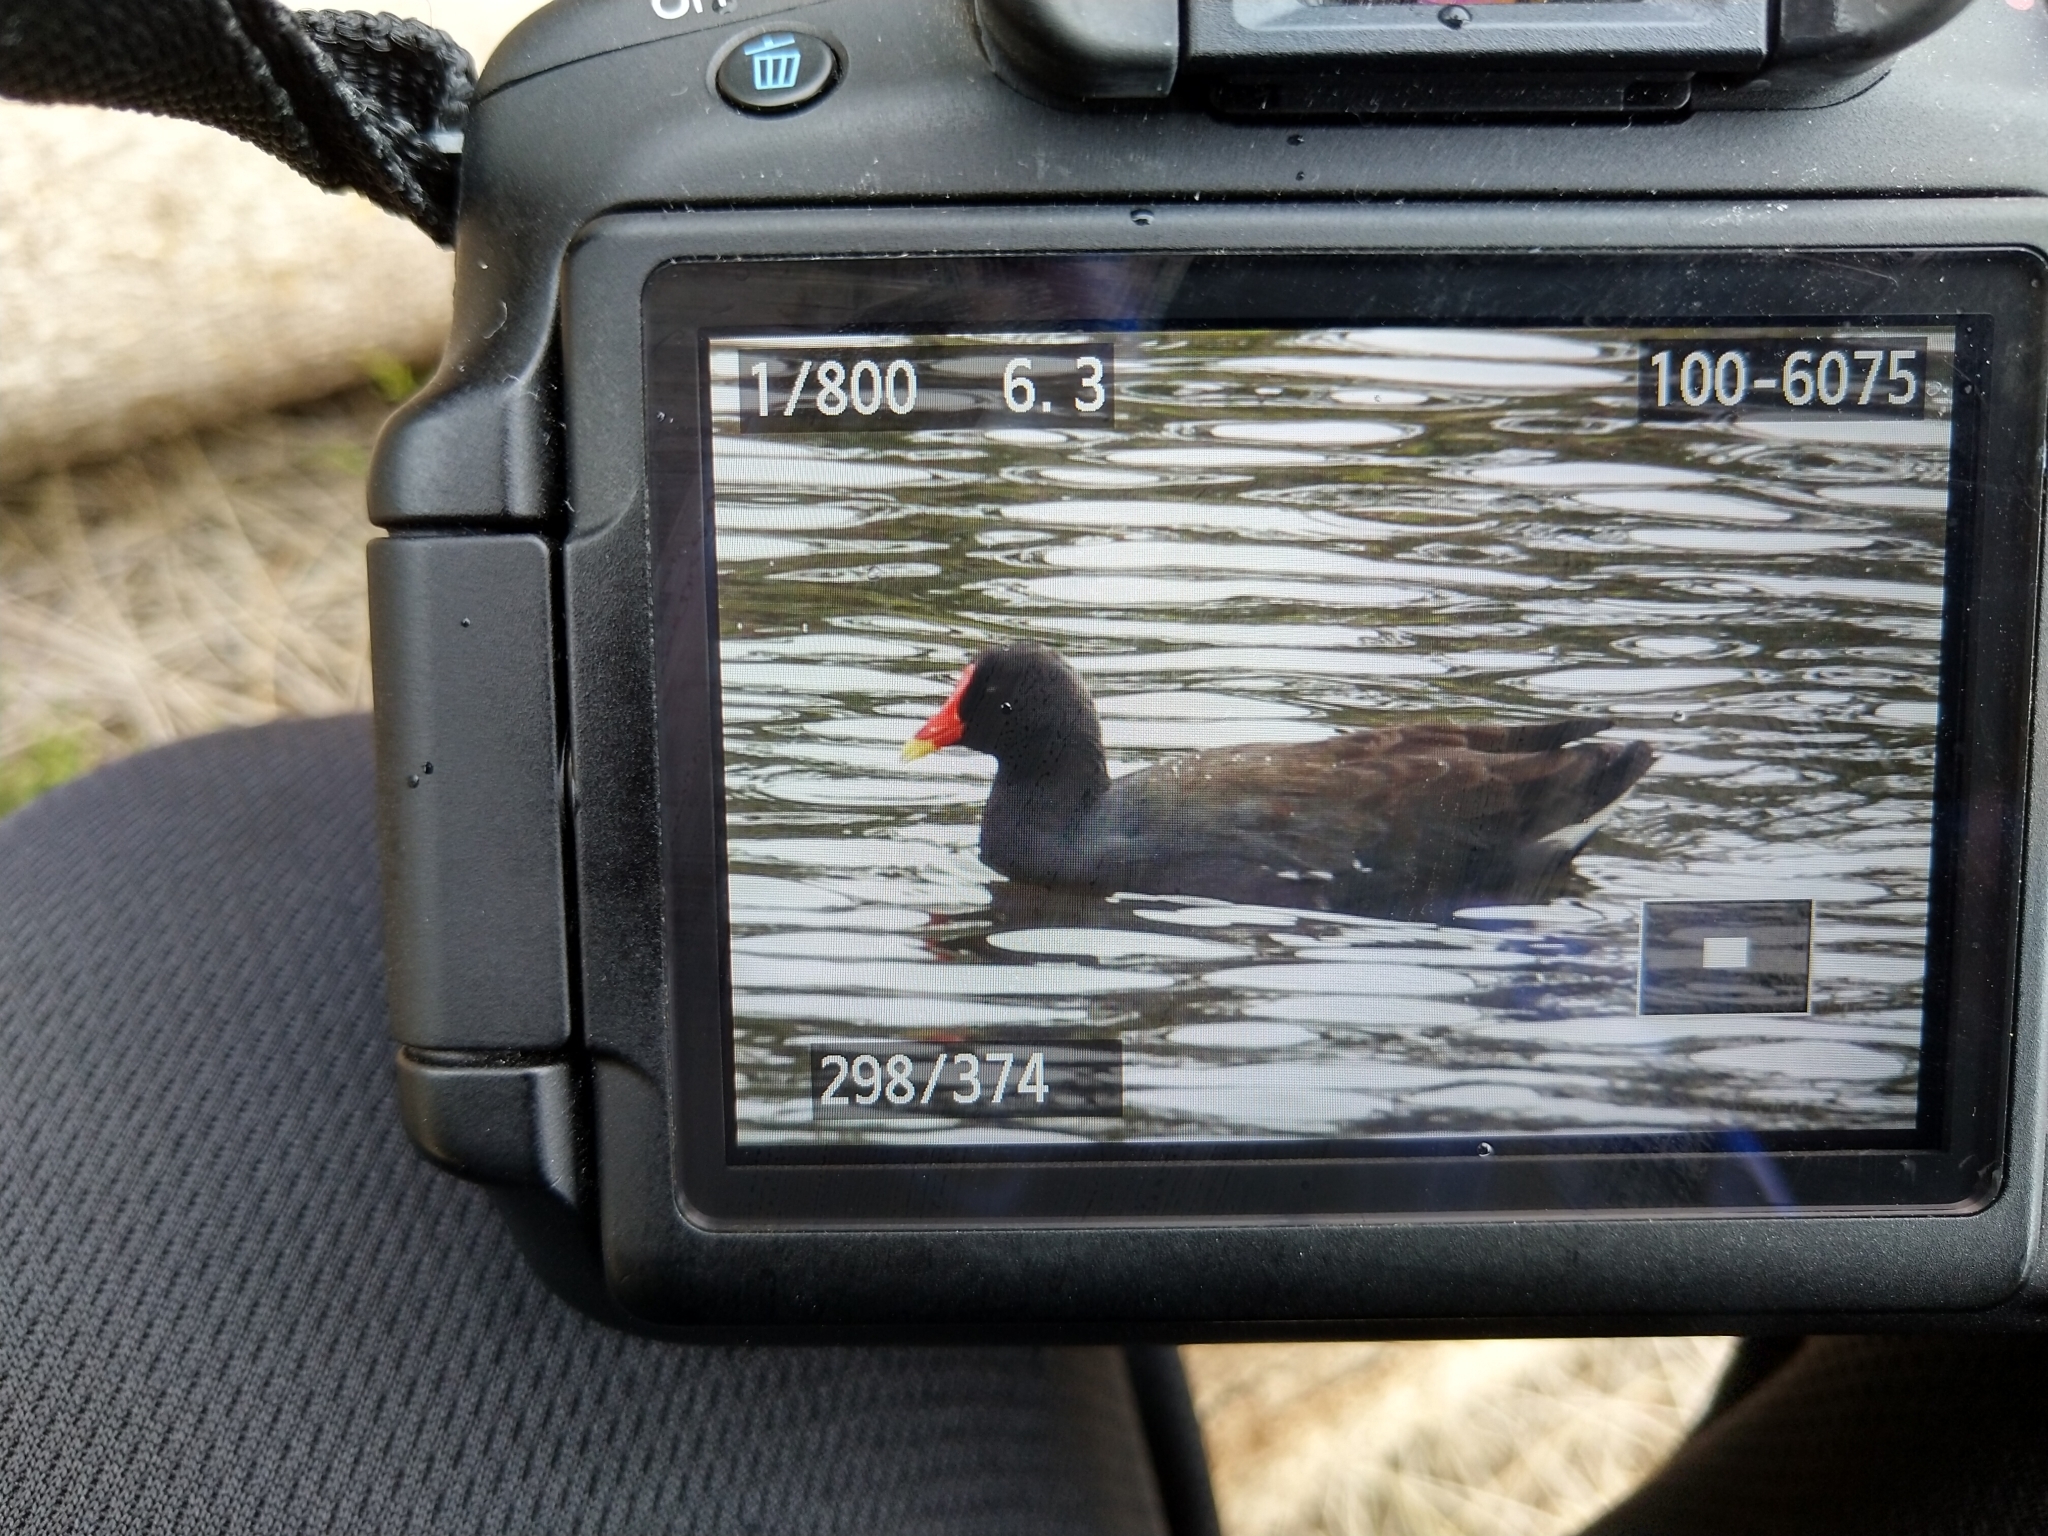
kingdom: Animalia
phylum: Chordata
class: Aves
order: Gruiformes
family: Rallidae
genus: Gallinula
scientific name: Gallinula tenebrosa
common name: Dusky moorhen
